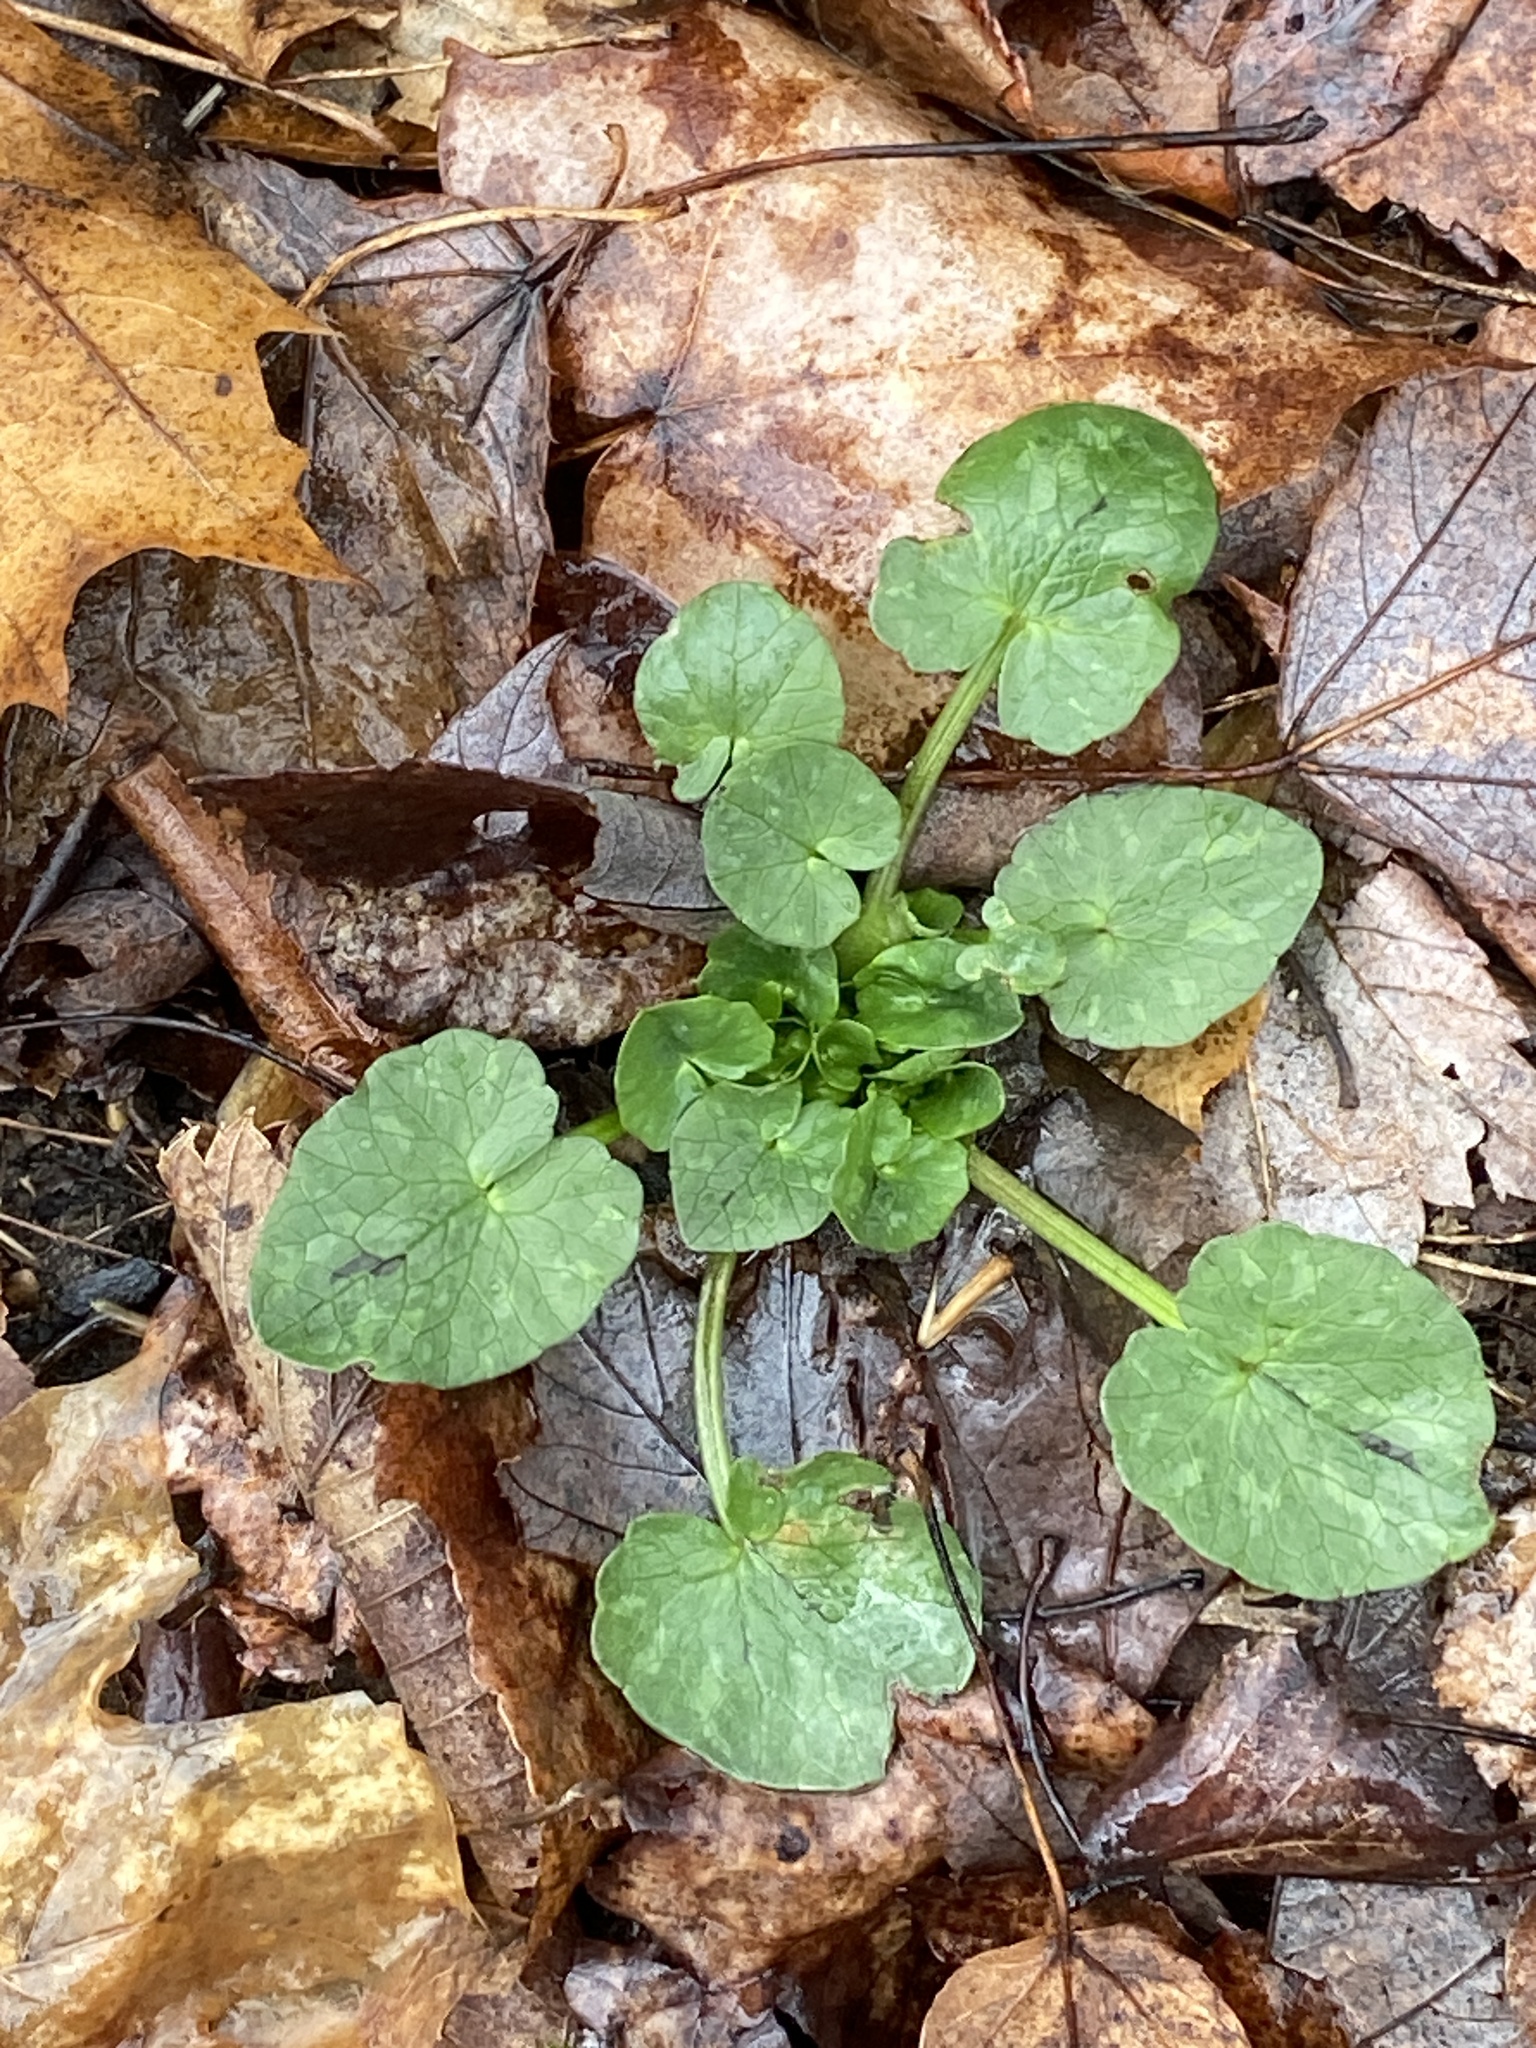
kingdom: Plantae
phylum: Tracheophyta
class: Magnoliopsida
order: Ranunculales
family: Ranunculaceae
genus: Ficaria
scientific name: Ficaria verna
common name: Lesser celandine
